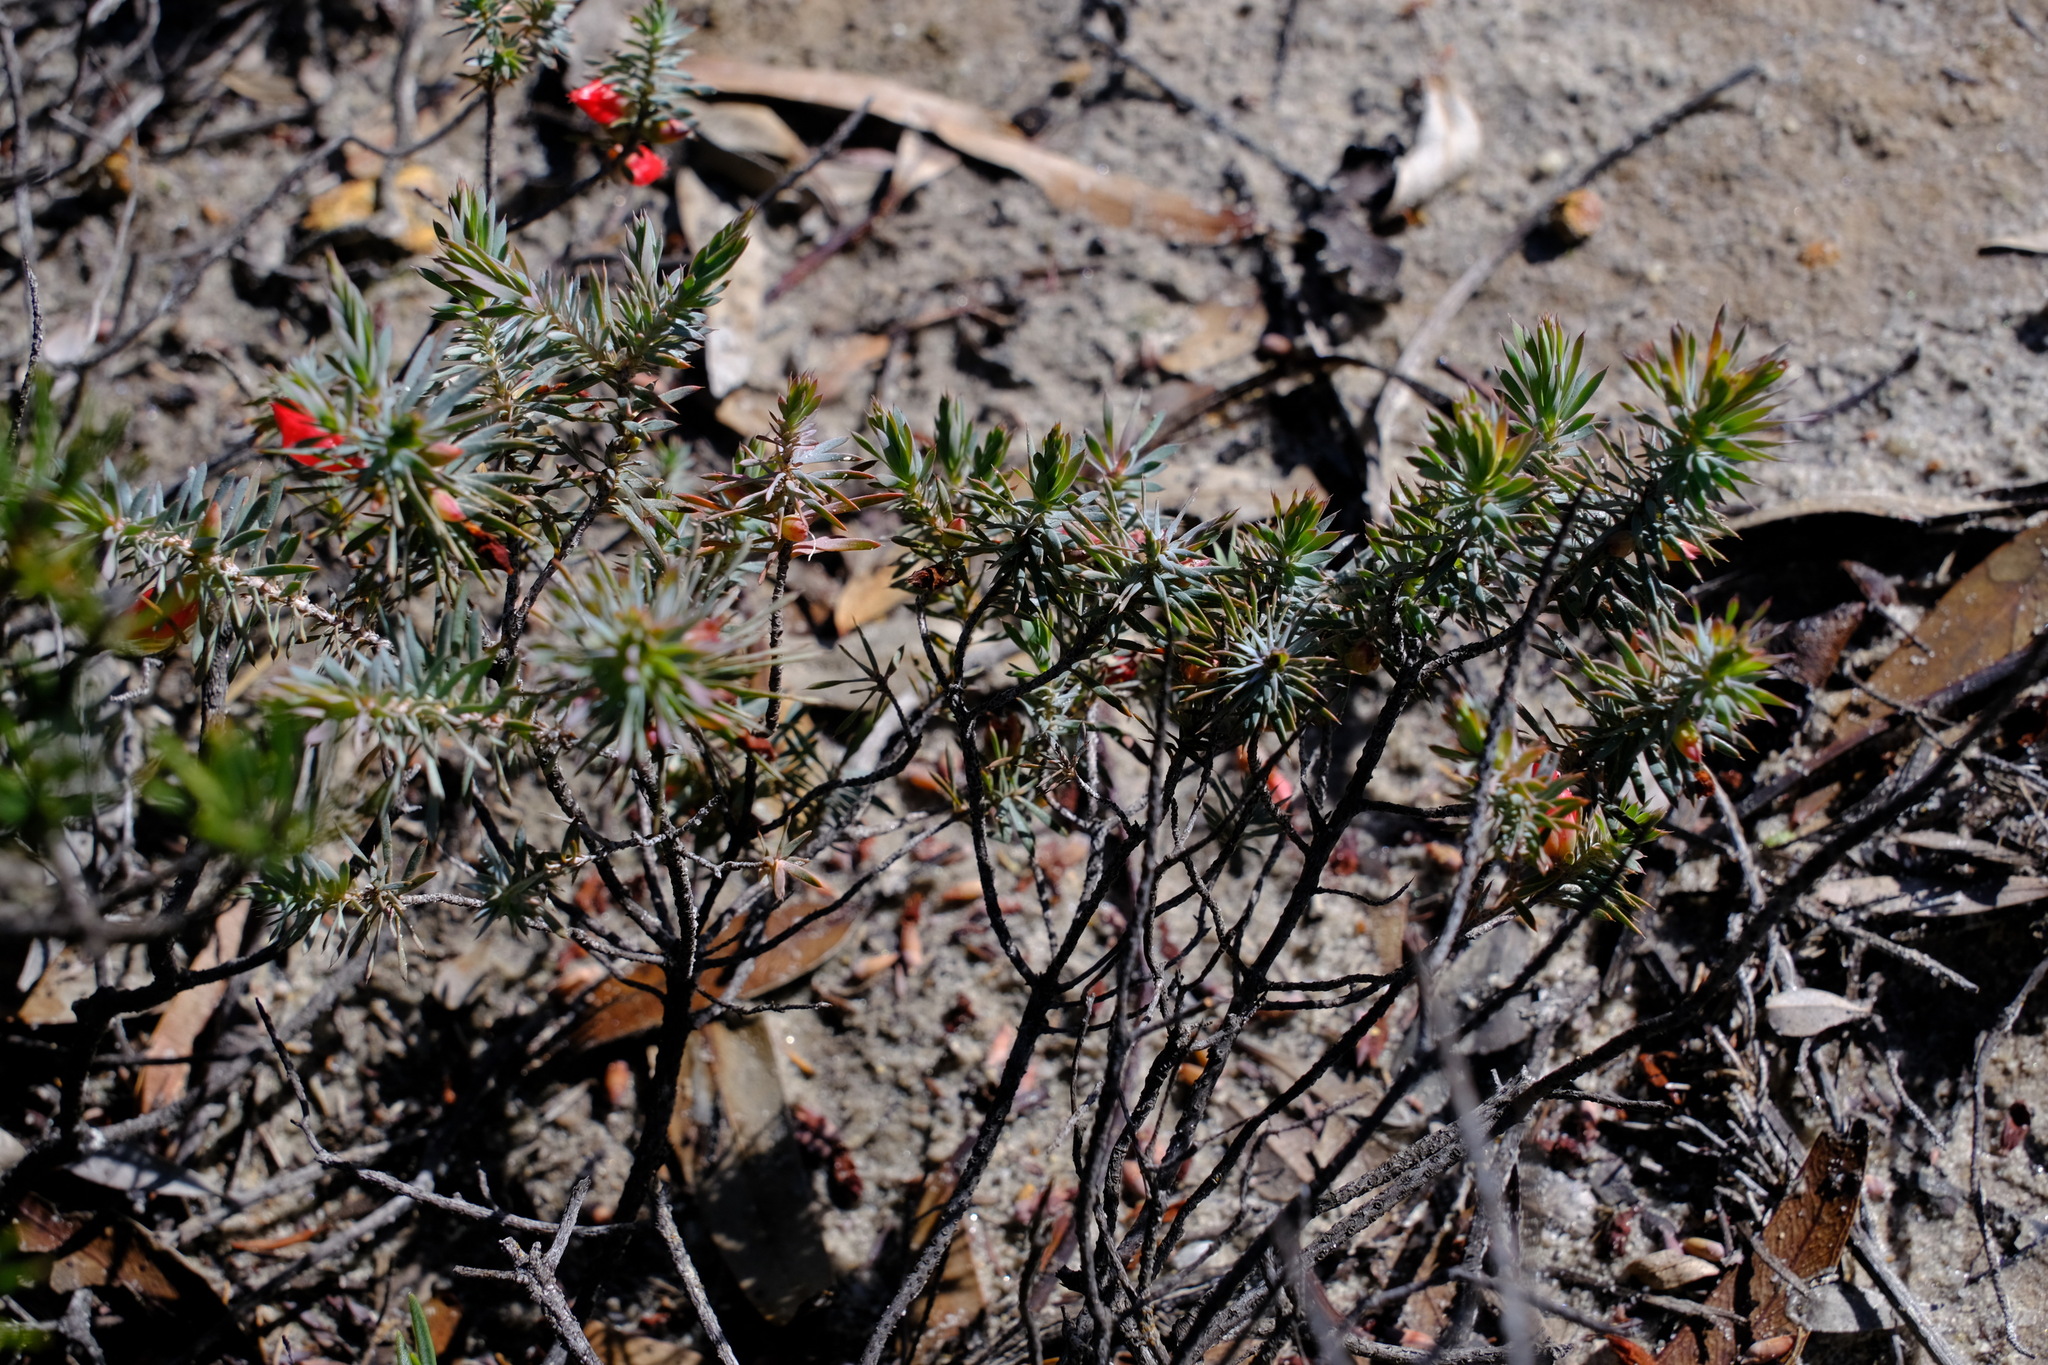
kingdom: Plantae
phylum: Tracheophyta
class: Magnoliopsida
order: Ericales
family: Ericaceae
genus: Styphelia
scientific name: Styphelia tortifolia
